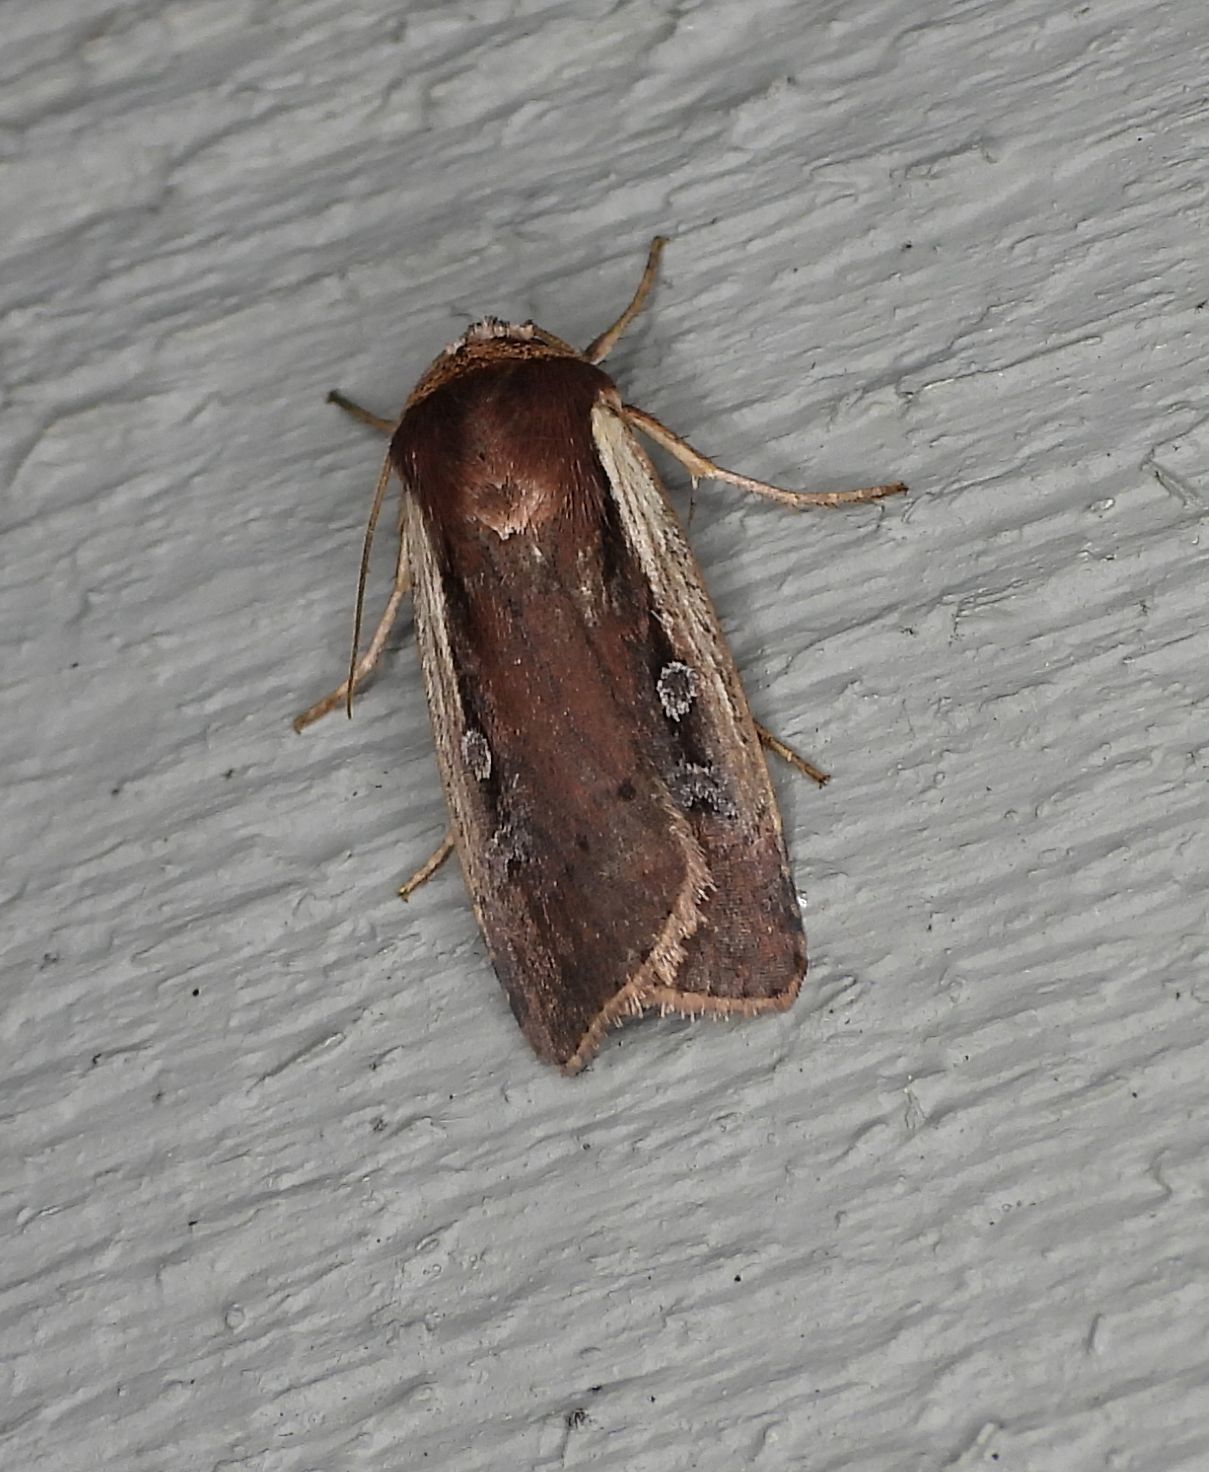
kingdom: Animalia
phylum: Arthropoda
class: Insecta
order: Lepidoptera
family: Noctuidae
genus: Ochropleura
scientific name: Ochropleura implecta
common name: Flame-shouldered dart
